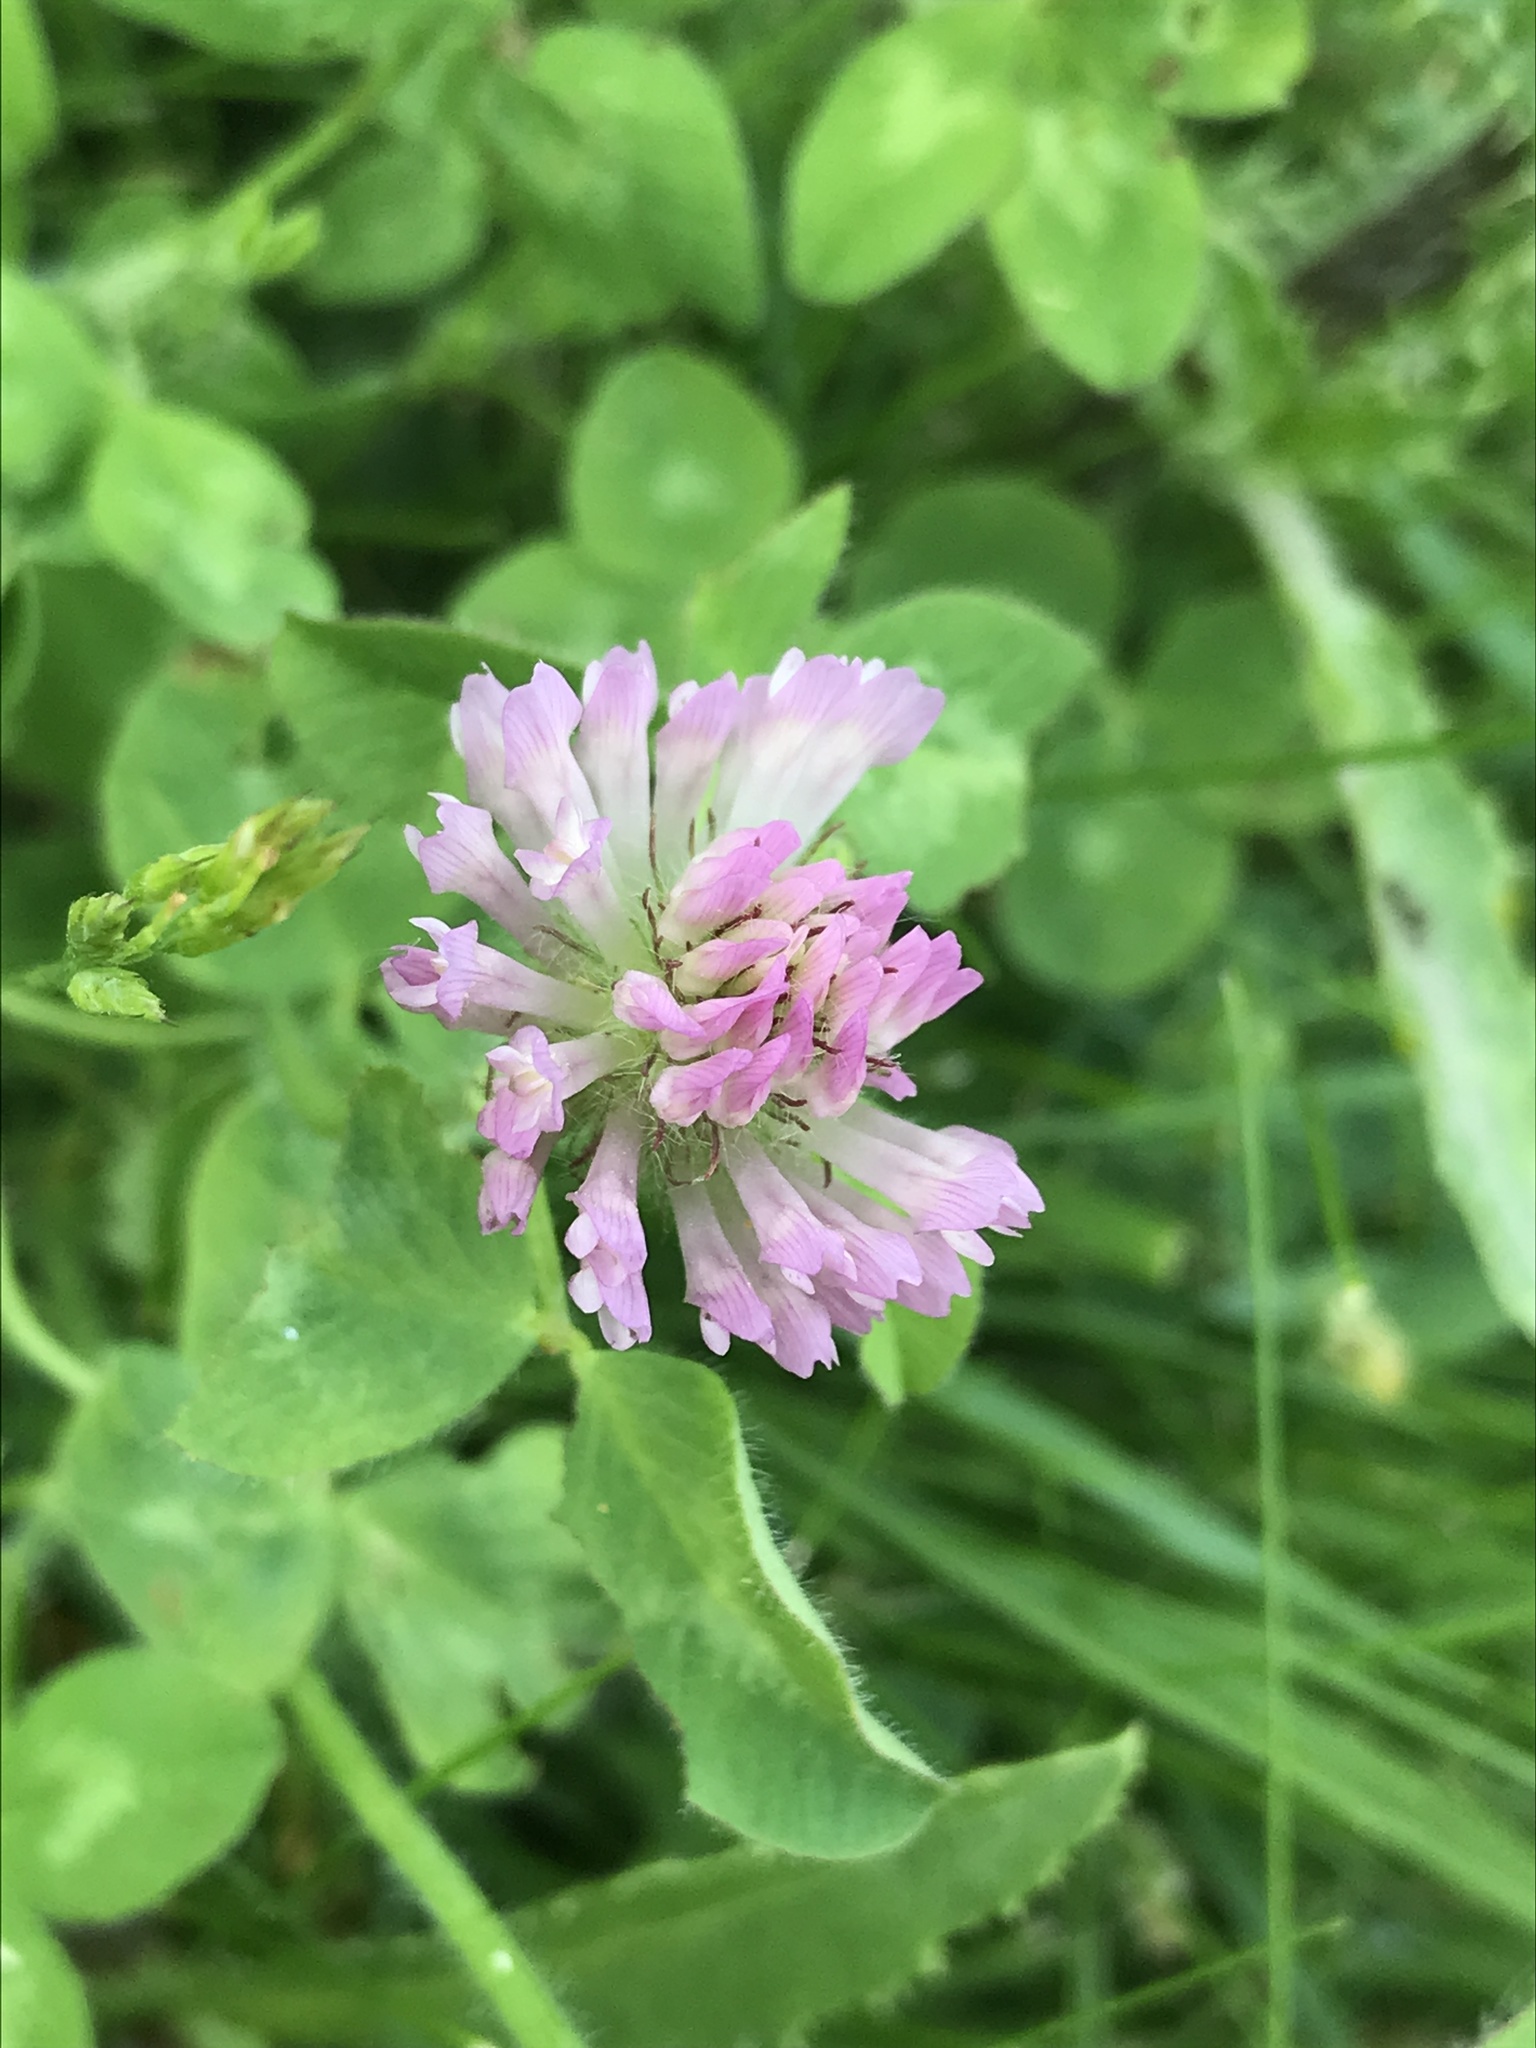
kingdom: Plantae
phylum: Tracheophyta
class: Magnoliopsida
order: Fabales
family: Fabaceae
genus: Trifolium
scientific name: Trifolium pratense
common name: Red clover
